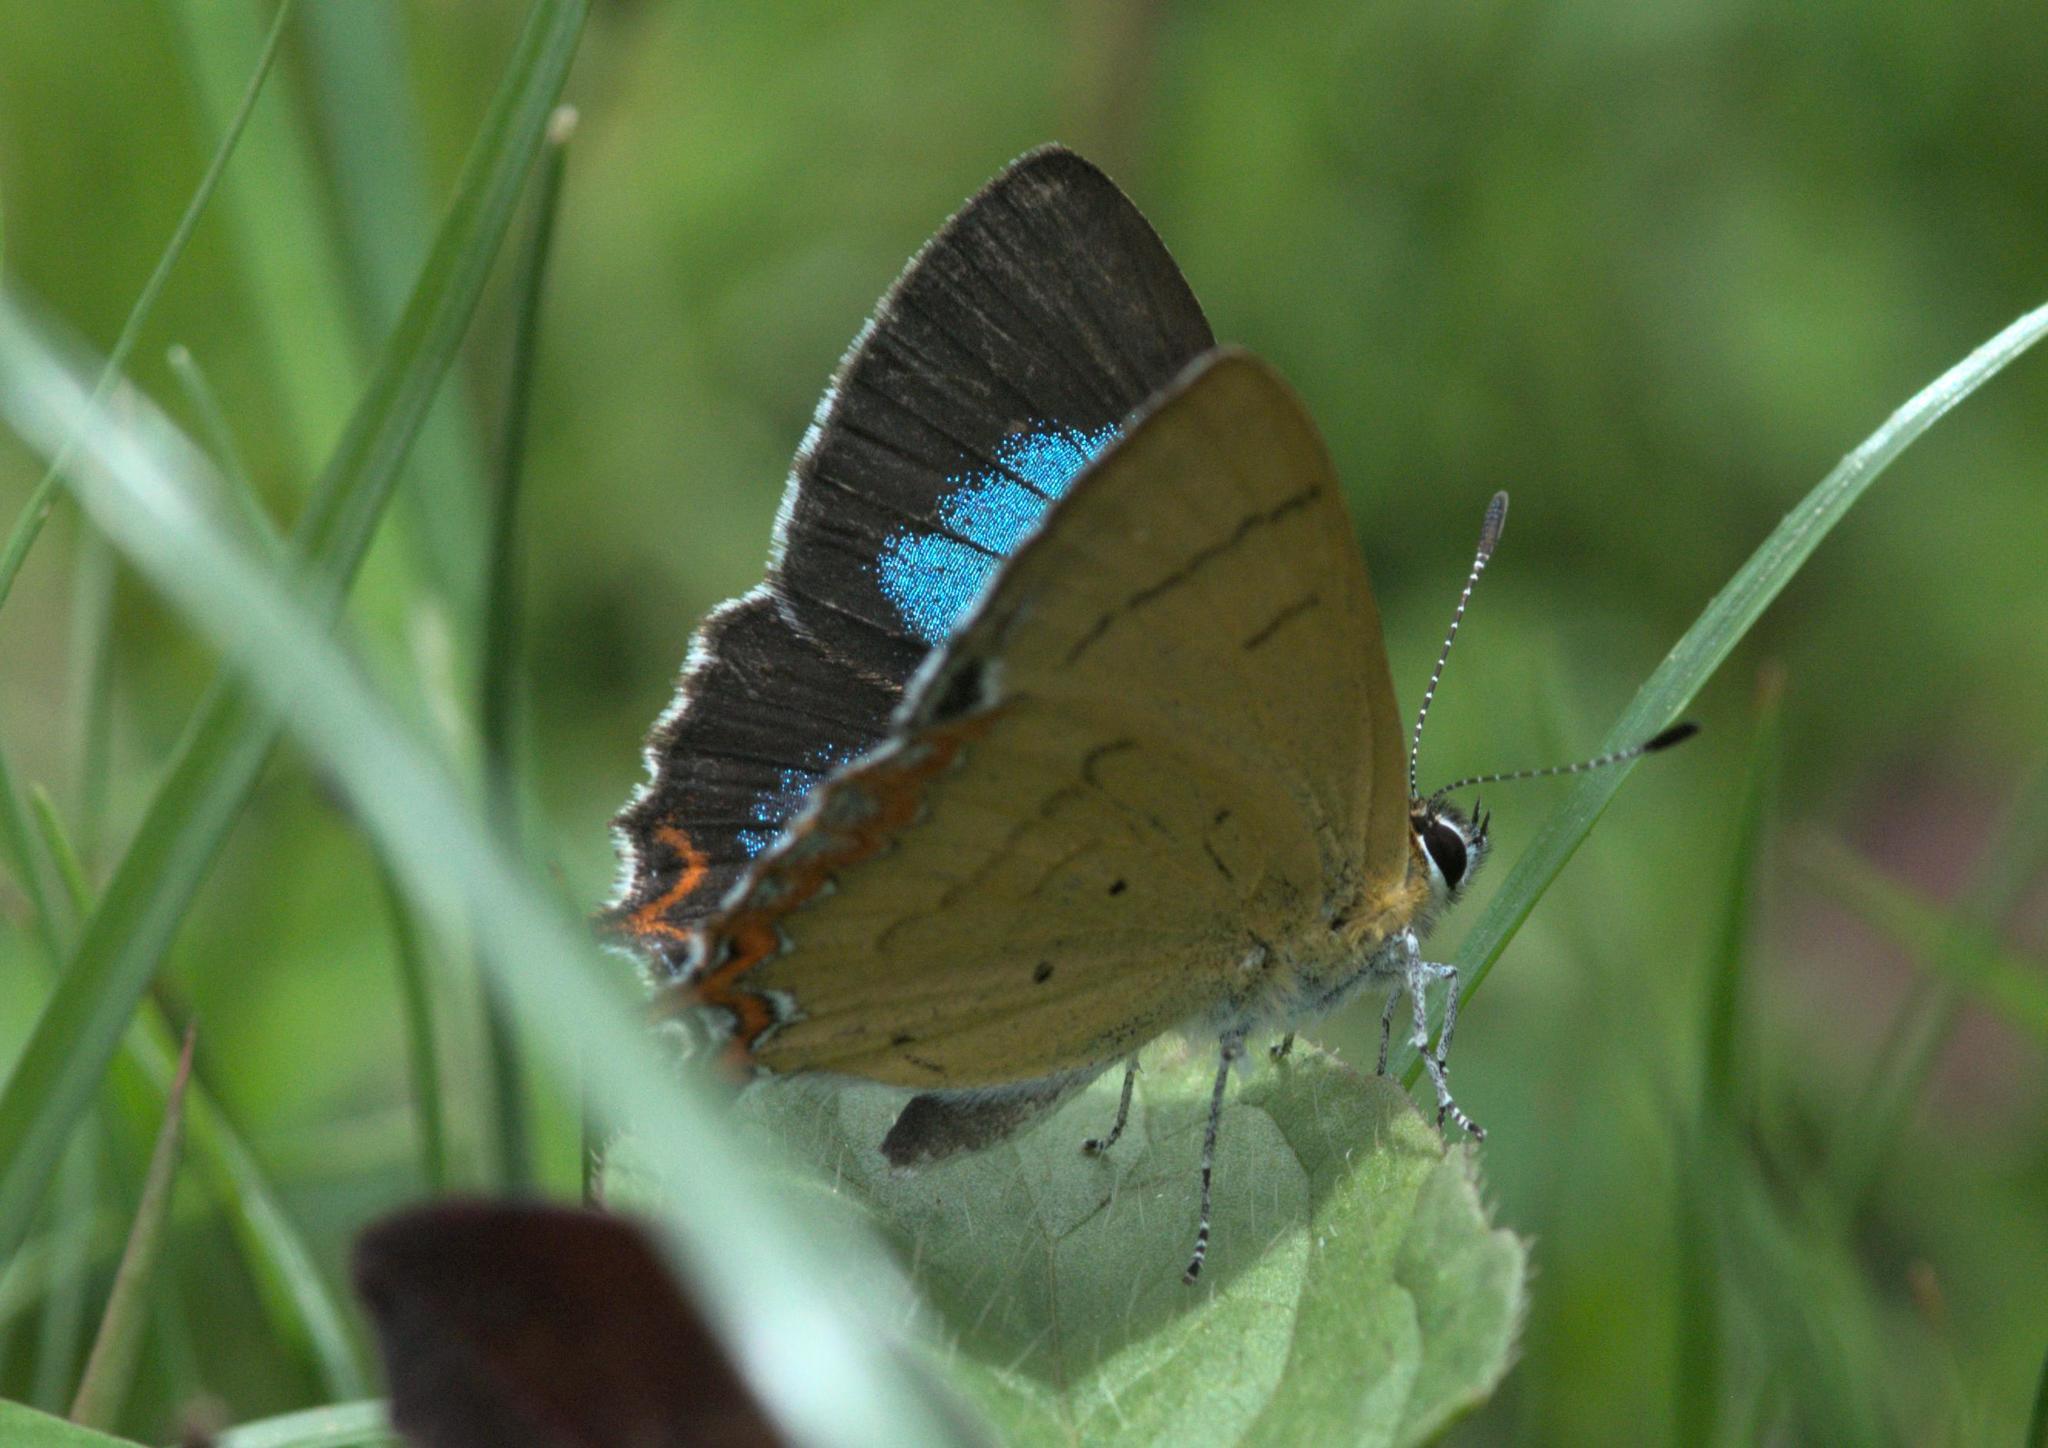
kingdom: Animalia
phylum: Arthropoda
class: Insecta
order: Lepidoptera
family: Lycaenidae
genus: Heliophorus
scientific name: Heliophorus
